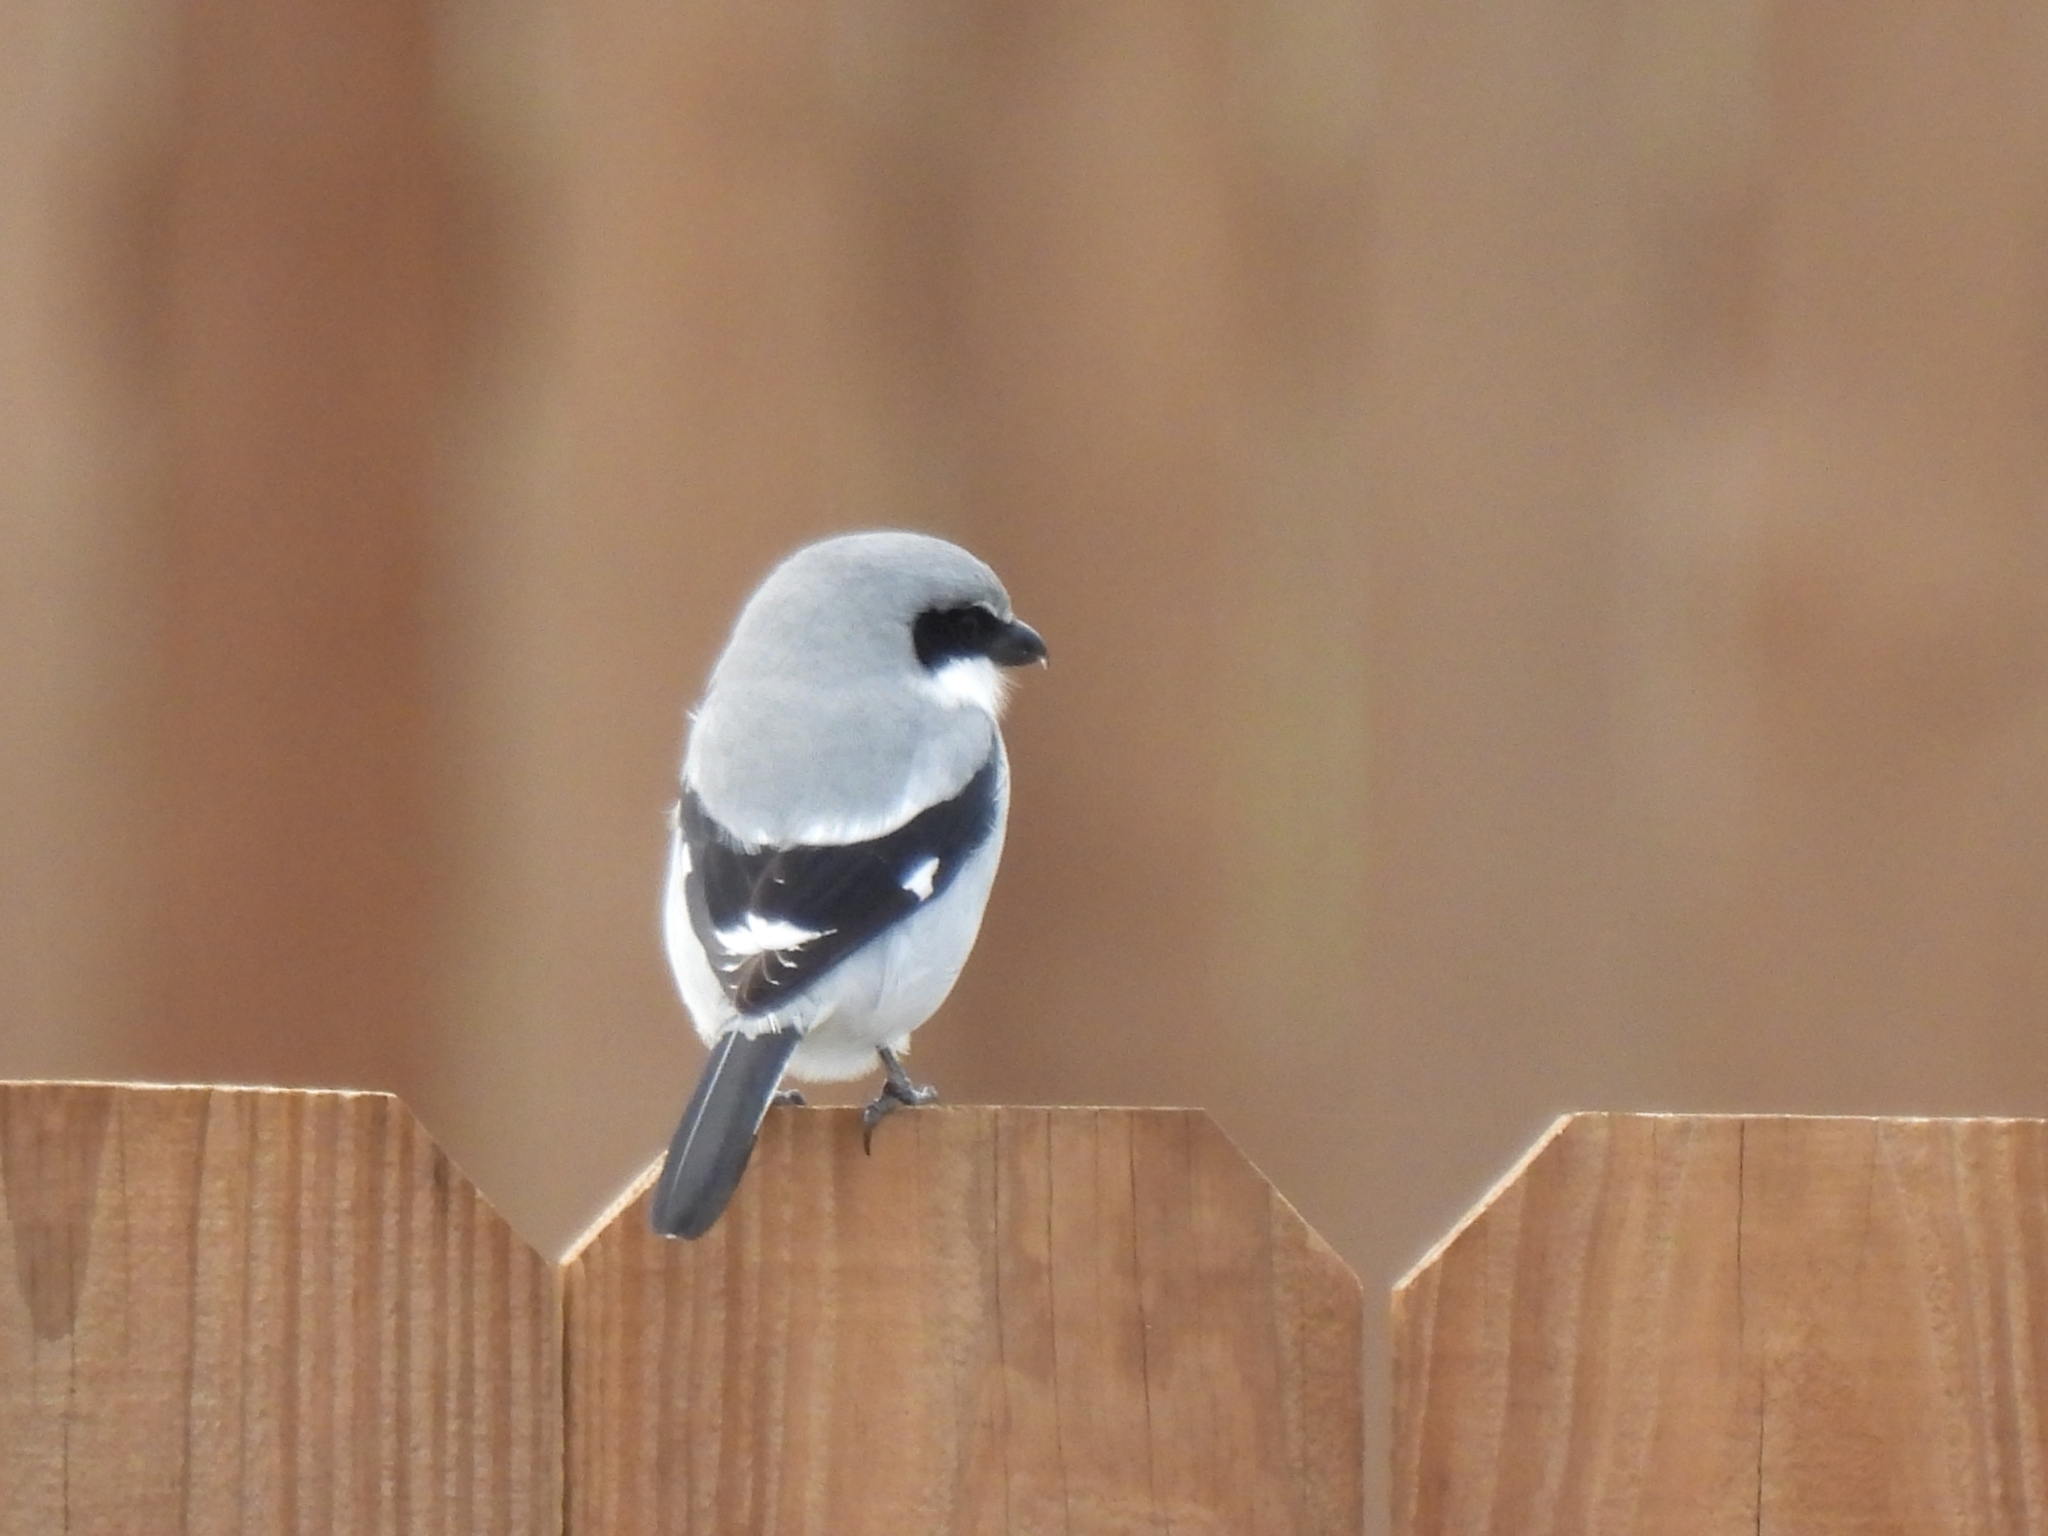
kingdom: Animalia
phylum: Chordata
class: Aves
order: Passeriformes
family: Laniidae
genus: Lanius
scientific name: Lanius ludovicianus
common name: Loggerhead shrike
